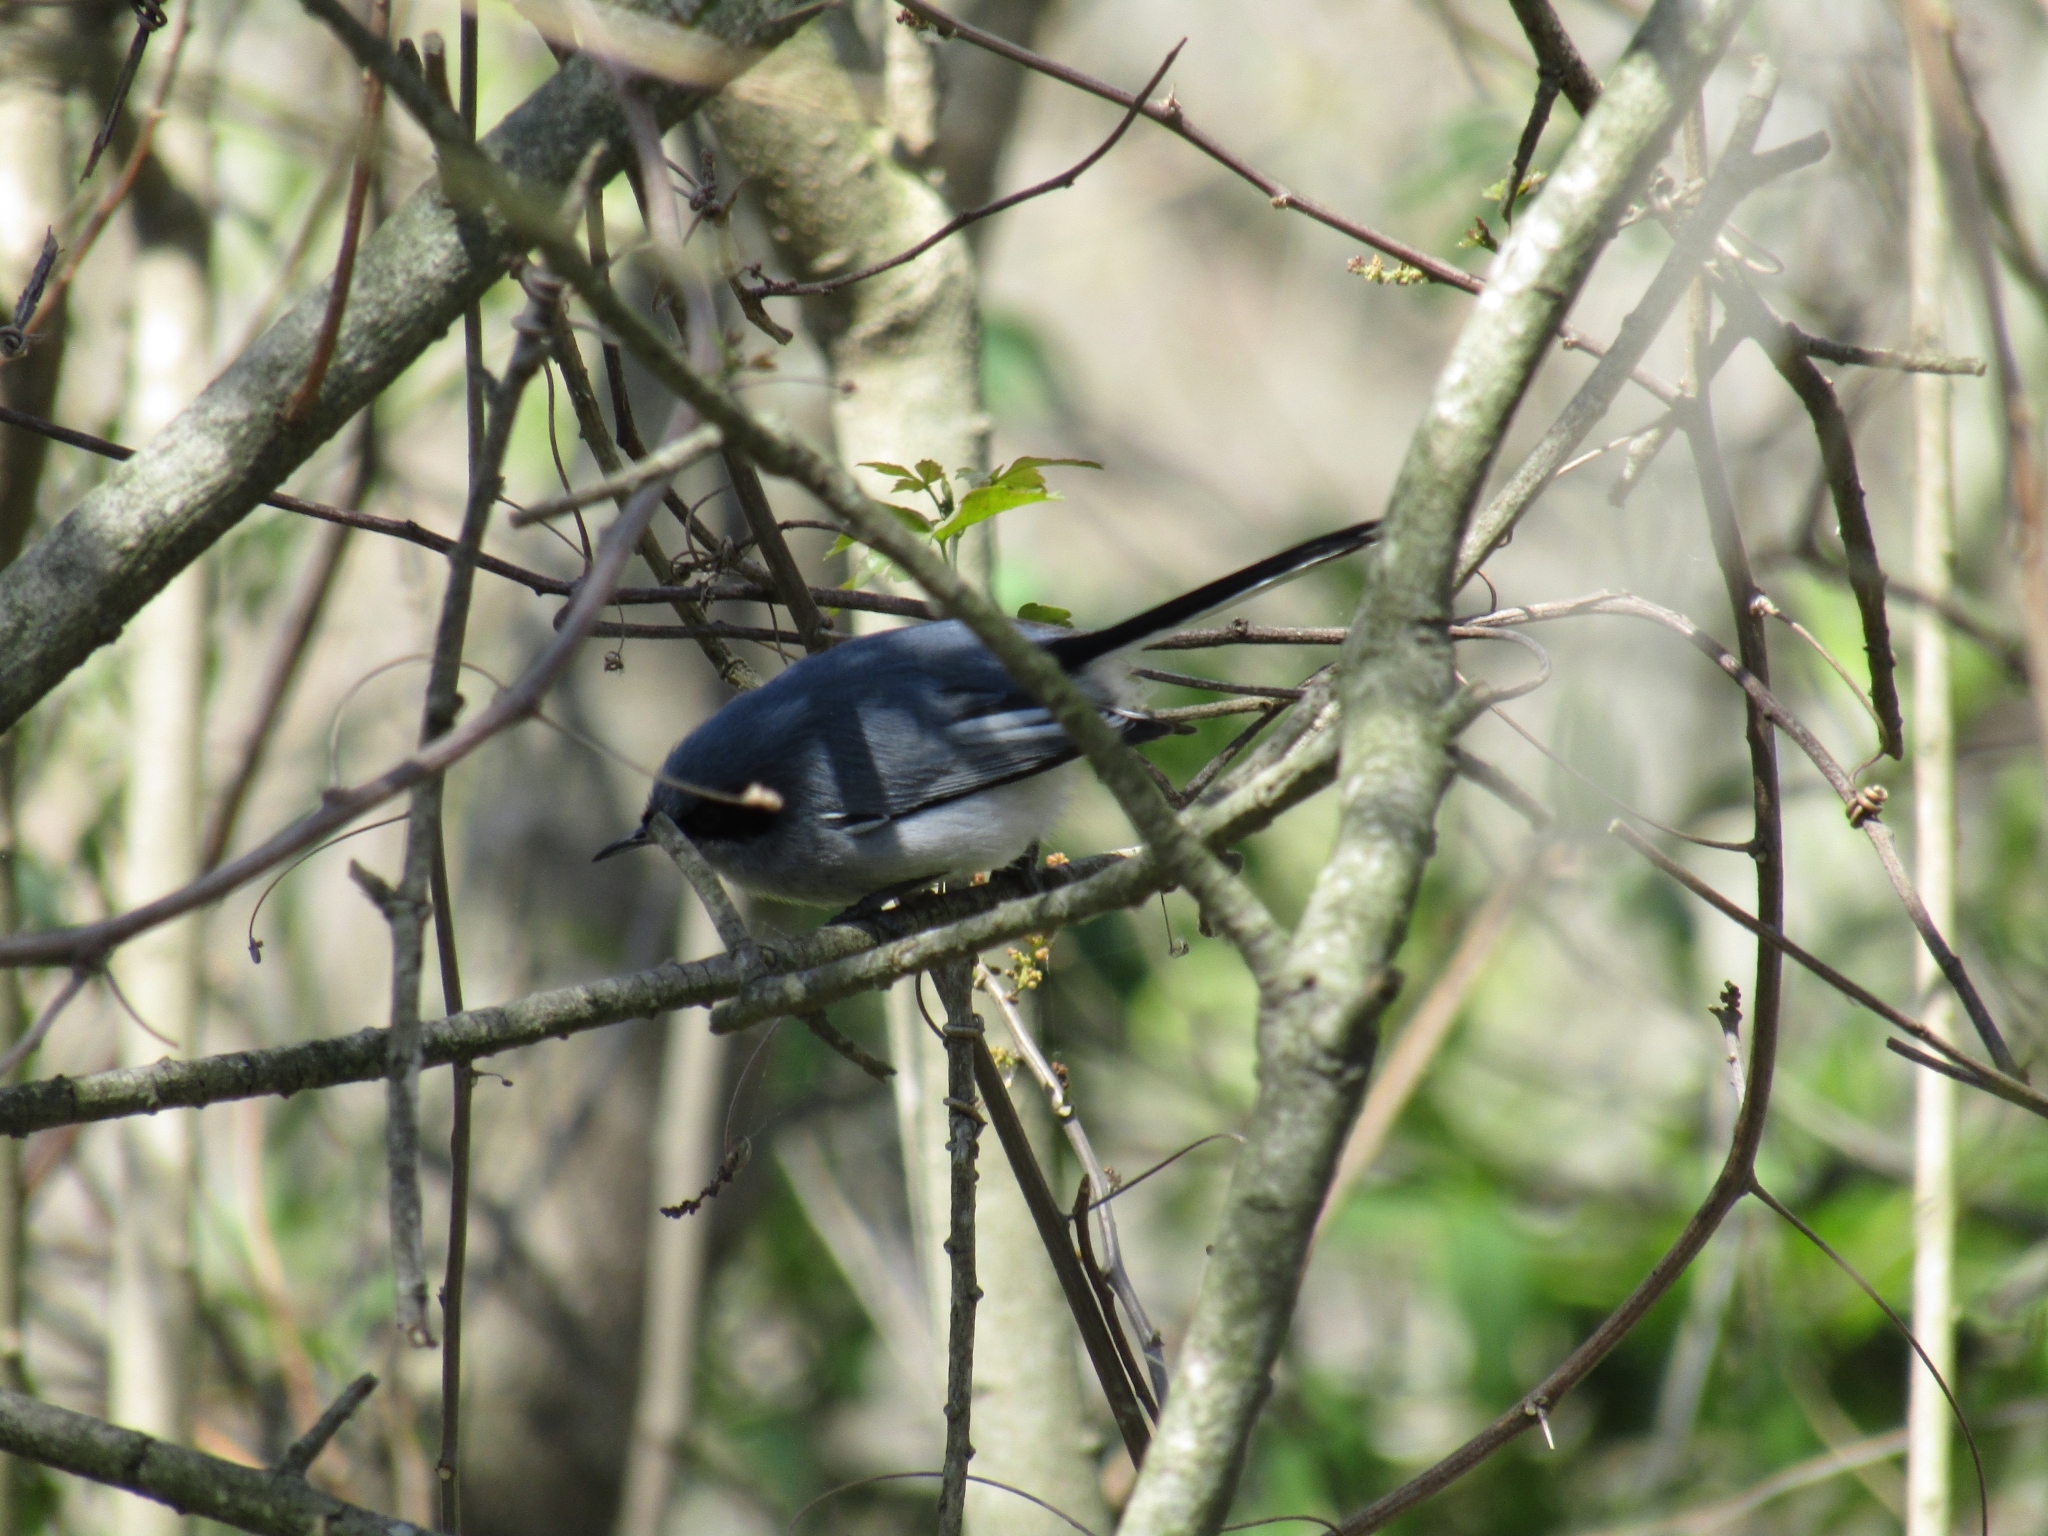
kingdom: Animalia
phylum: Chordata
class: Aves
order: Passeriformes
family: Polioptilidae
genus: Polioptila
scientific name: Polioptila dumicola
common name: Masked gnatcatcher
